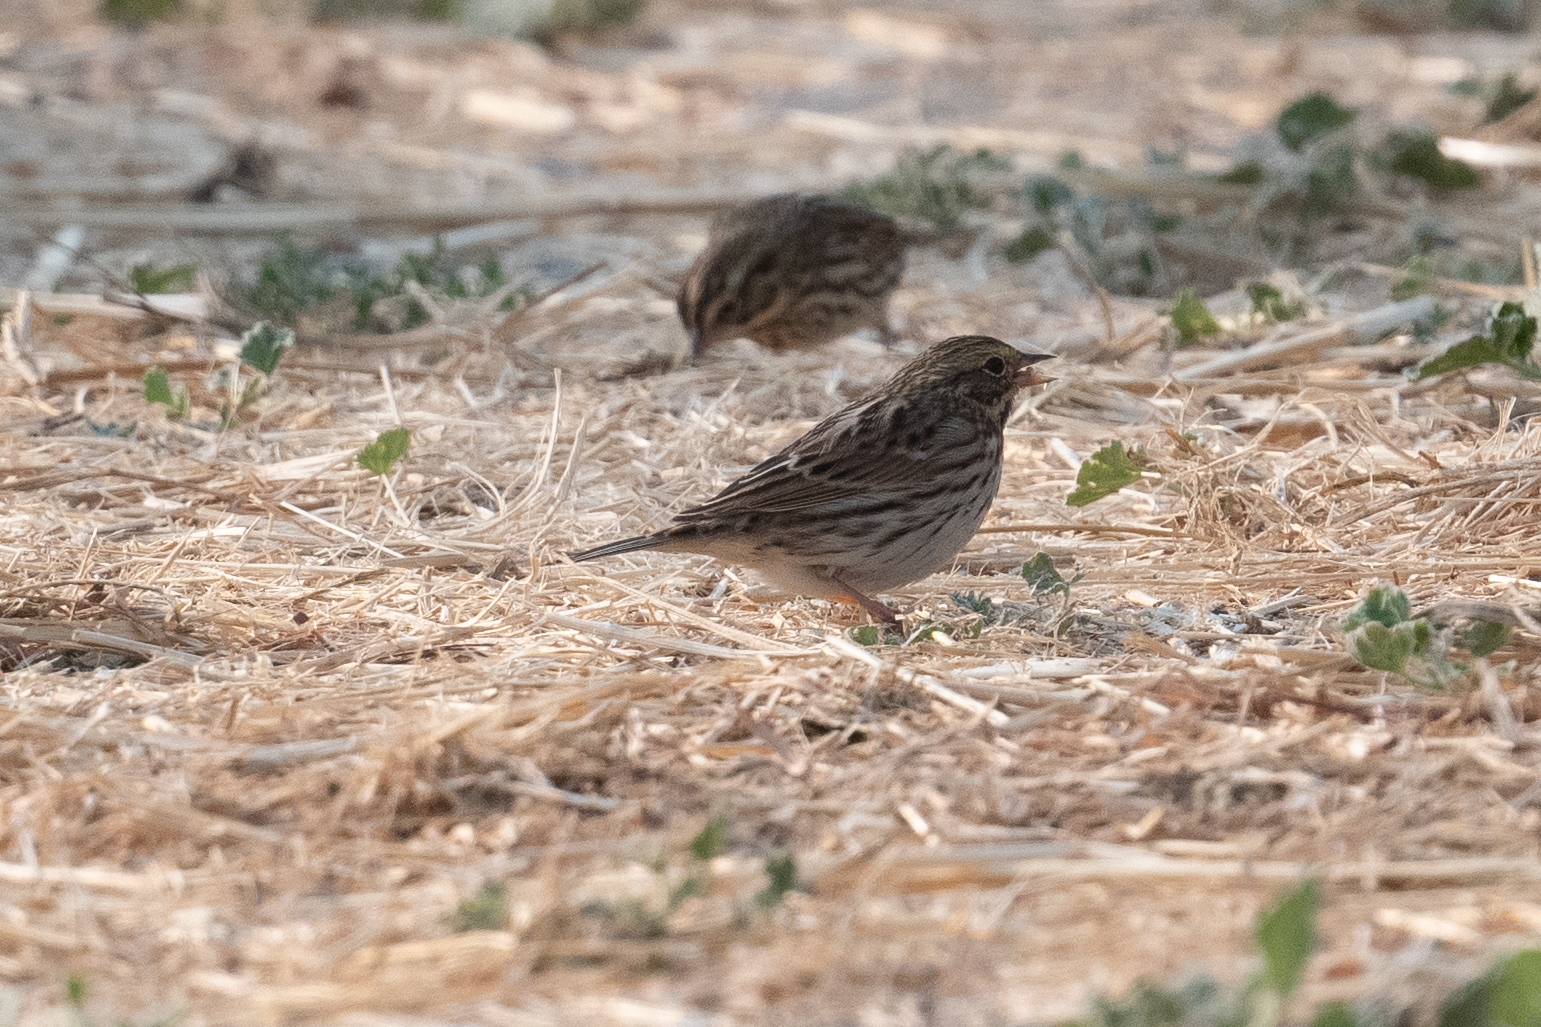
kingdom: Animalia
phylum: Chordata
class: Aves
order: Passeriformes
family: Passerellidae
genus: Passerculus
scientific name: Passerculus sandwichensis
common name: Savannah sparrow
